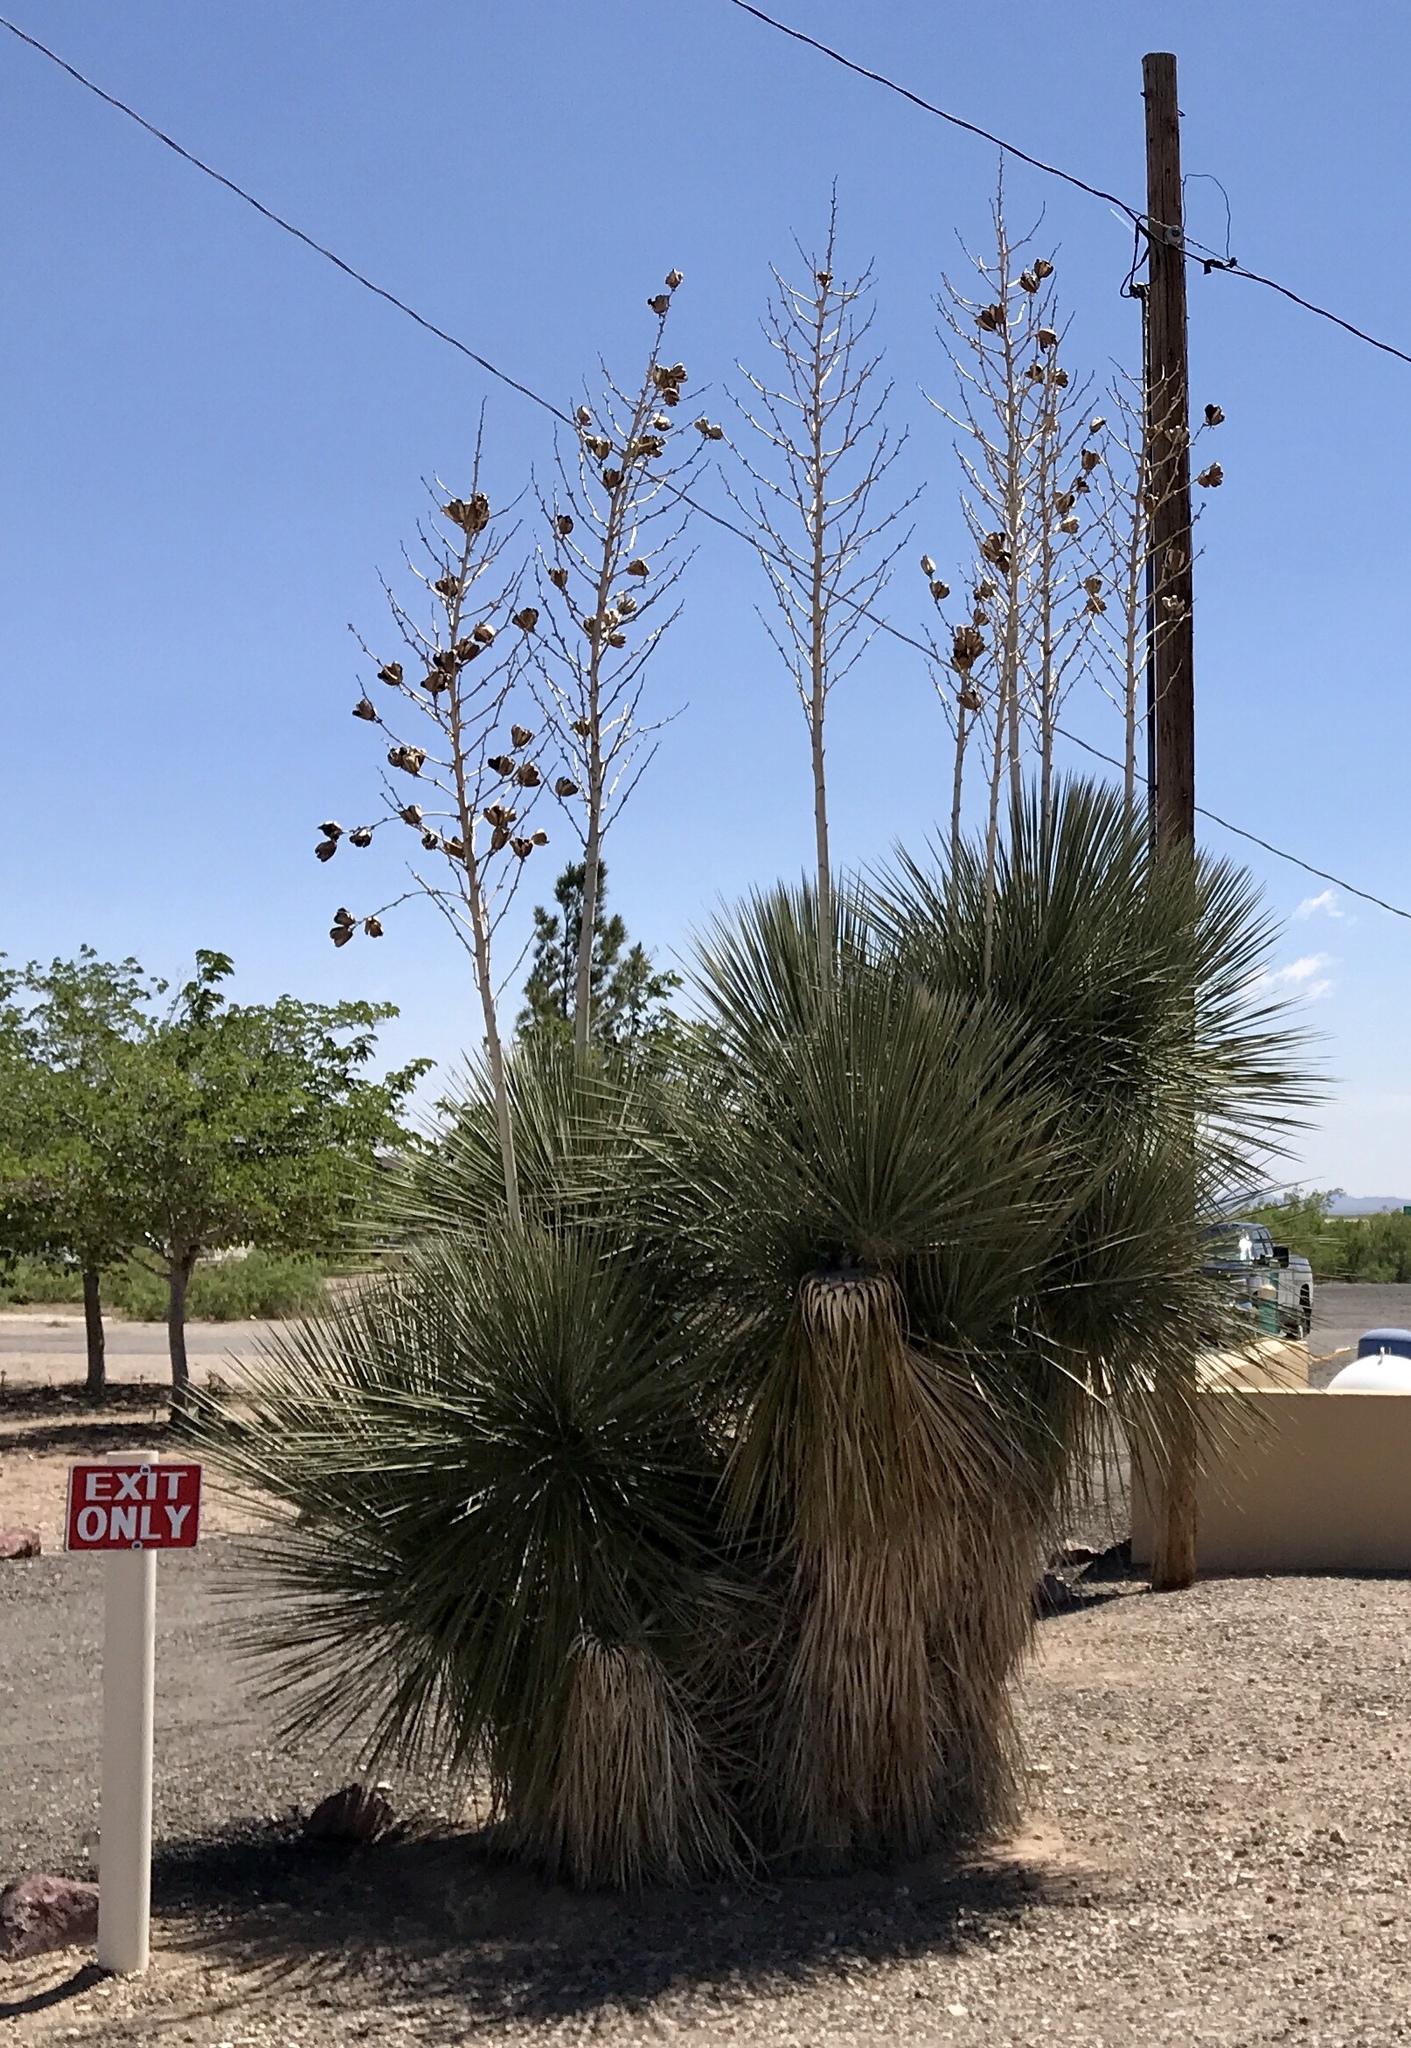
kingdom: Plantae
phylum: Tracheophyta
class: Liliopsida
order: Asparagales
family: Asparagaceae
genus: Yucca
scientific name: Yucca elata
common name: Palmella
